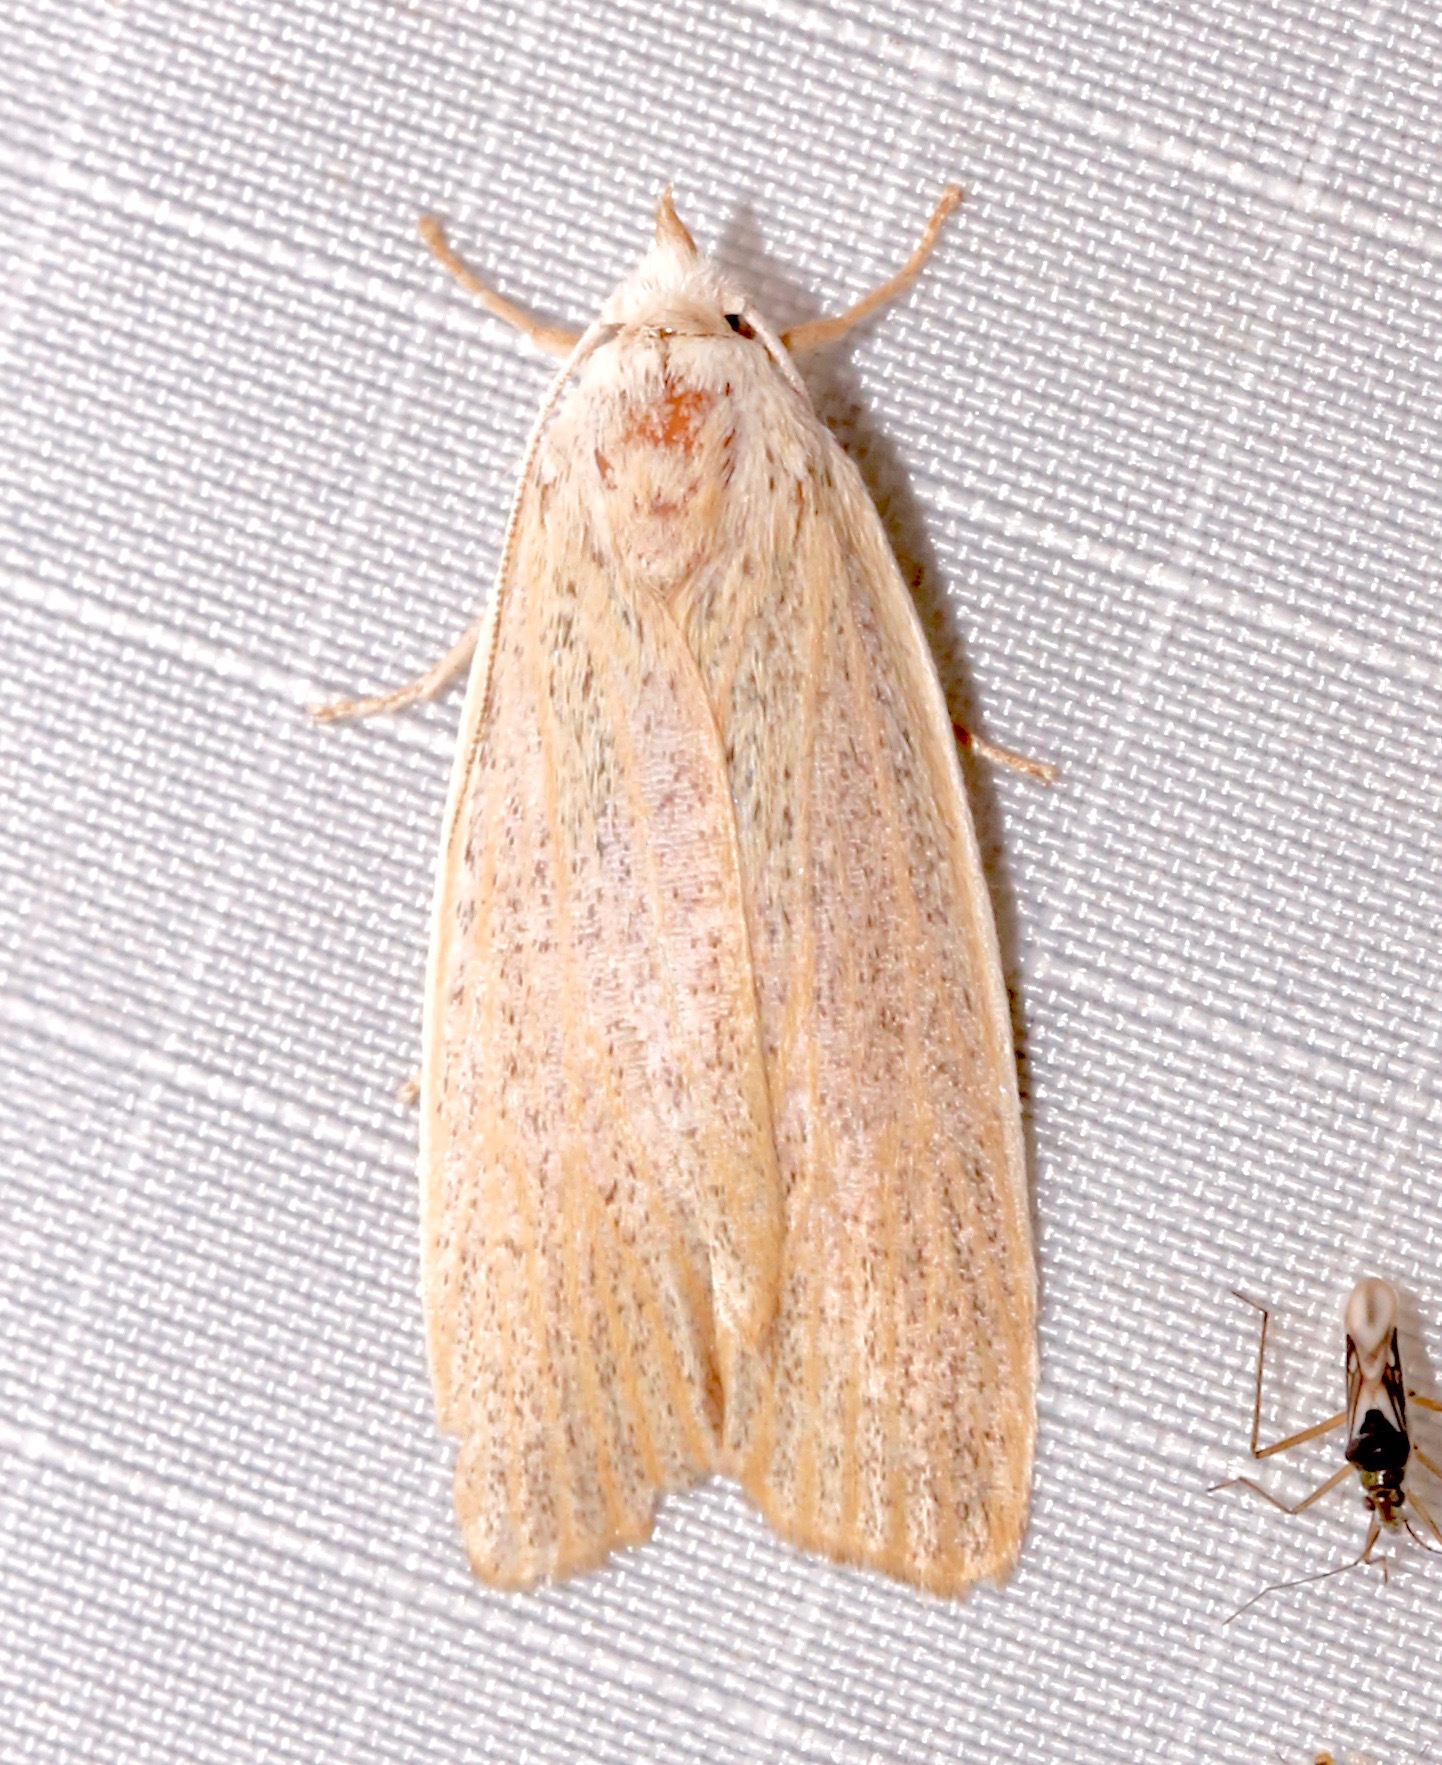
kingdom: Animalia
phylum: Arthropoda
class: Insecta
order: Lepidoptera
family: Erebidae
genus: Palpidia
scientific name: Palpidia pallidior
